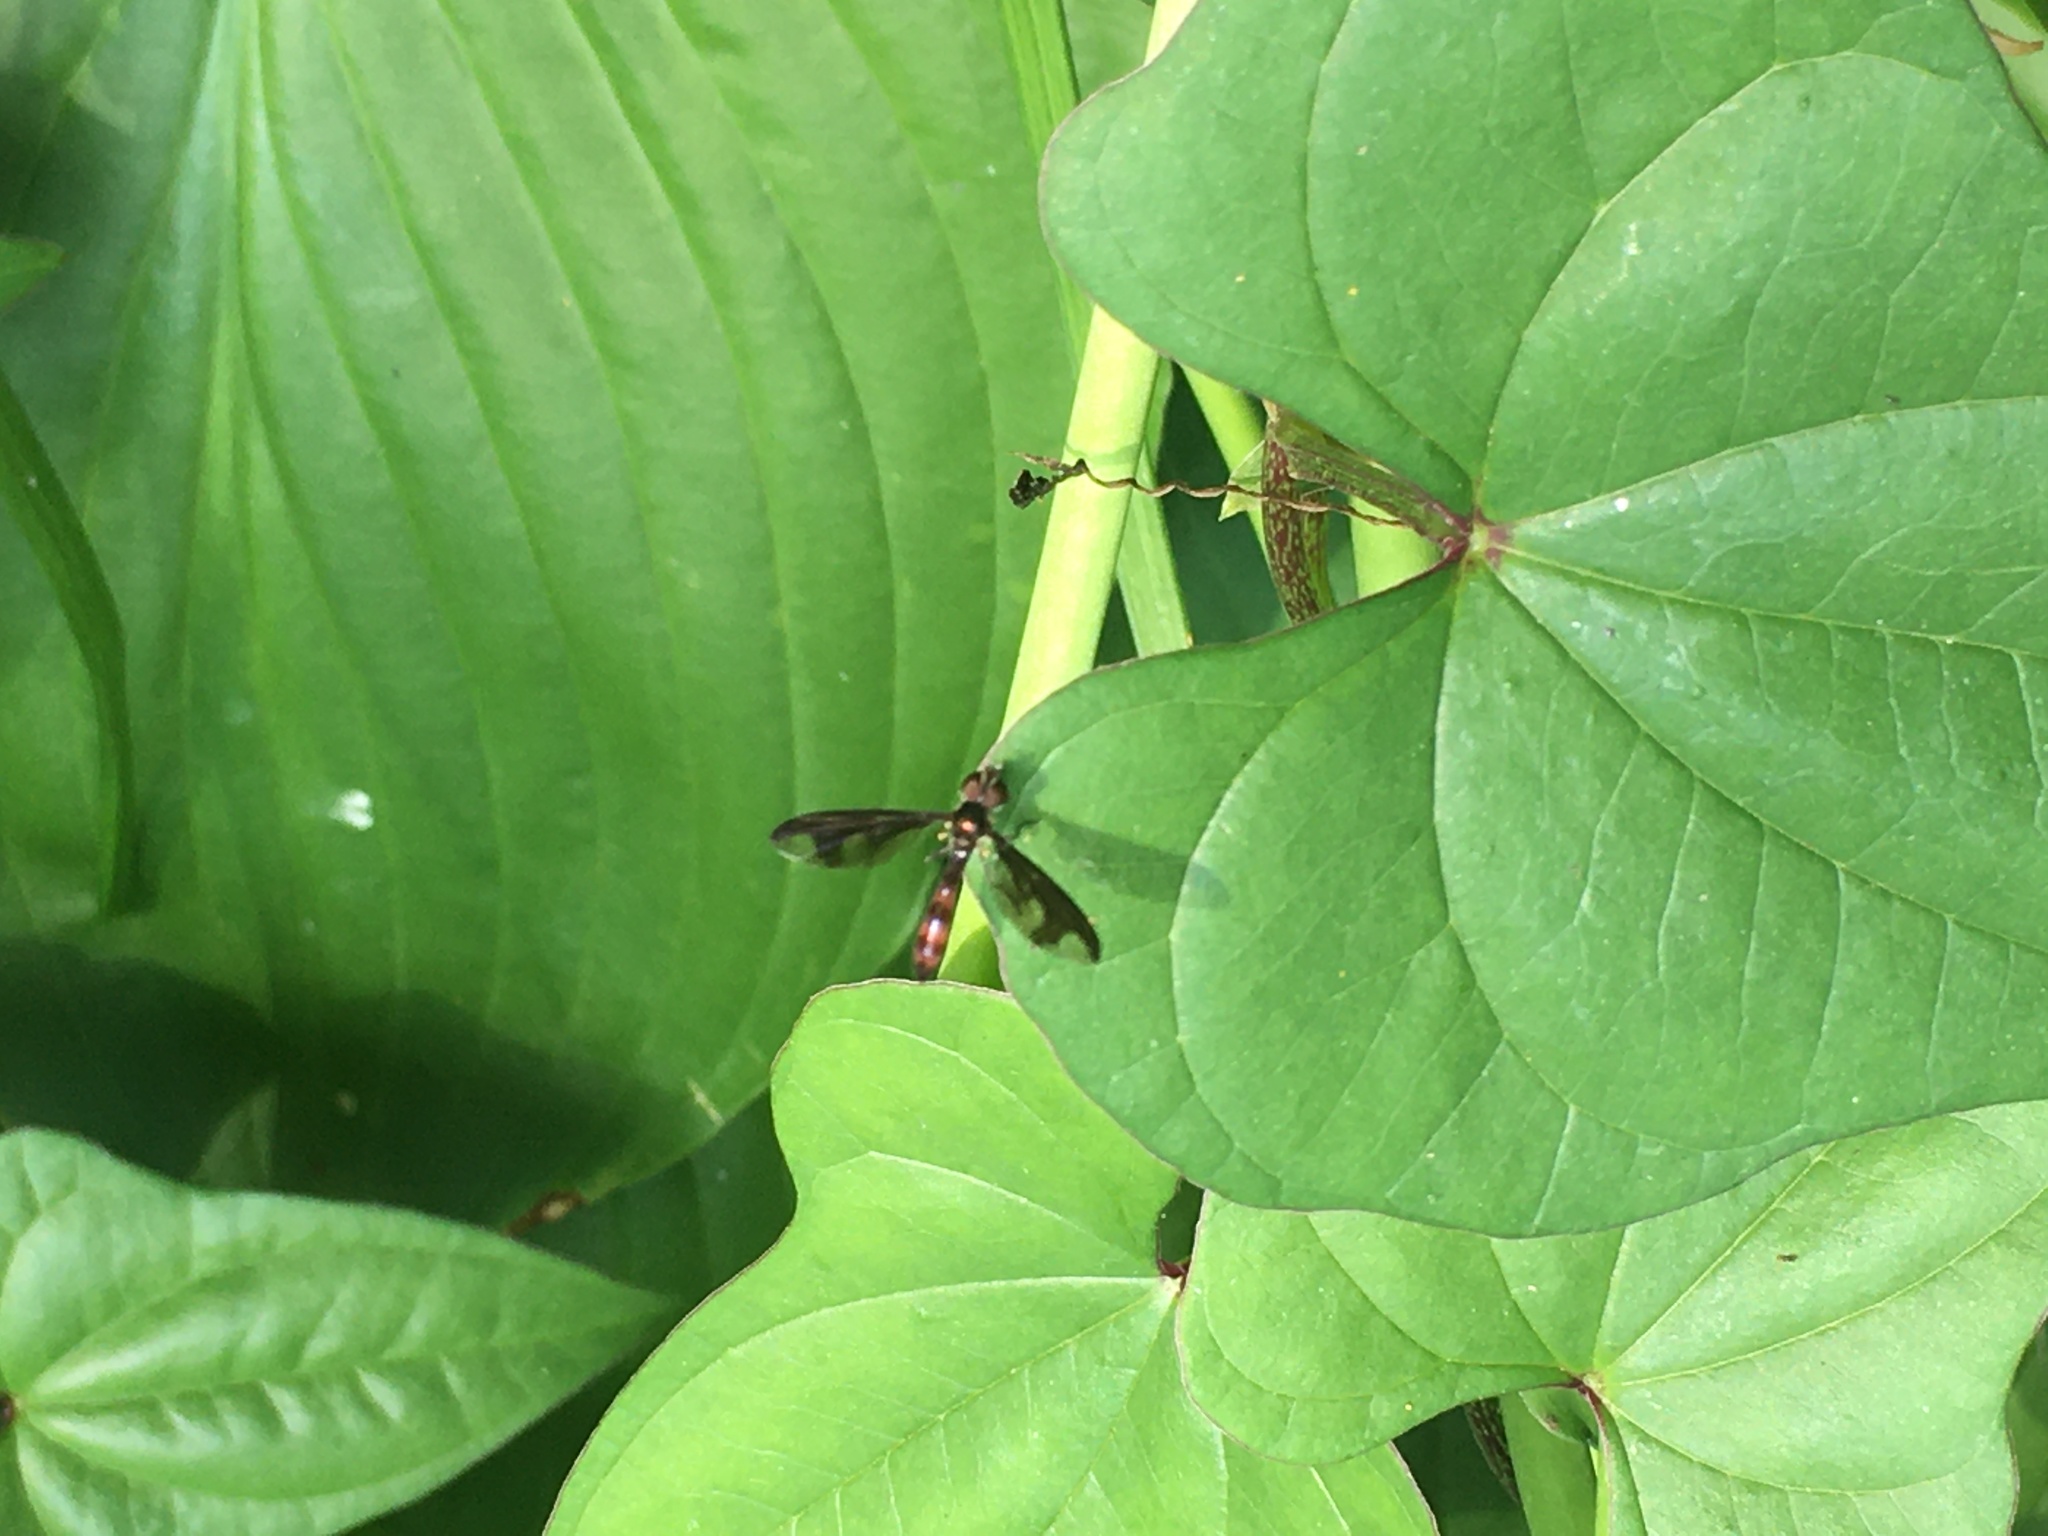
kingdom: Animalia
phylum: Arthropoda
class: Insecta
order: Diptera
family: Syrphidae
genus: Ocyptamus
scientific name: Ocyptamus fuscipennis
